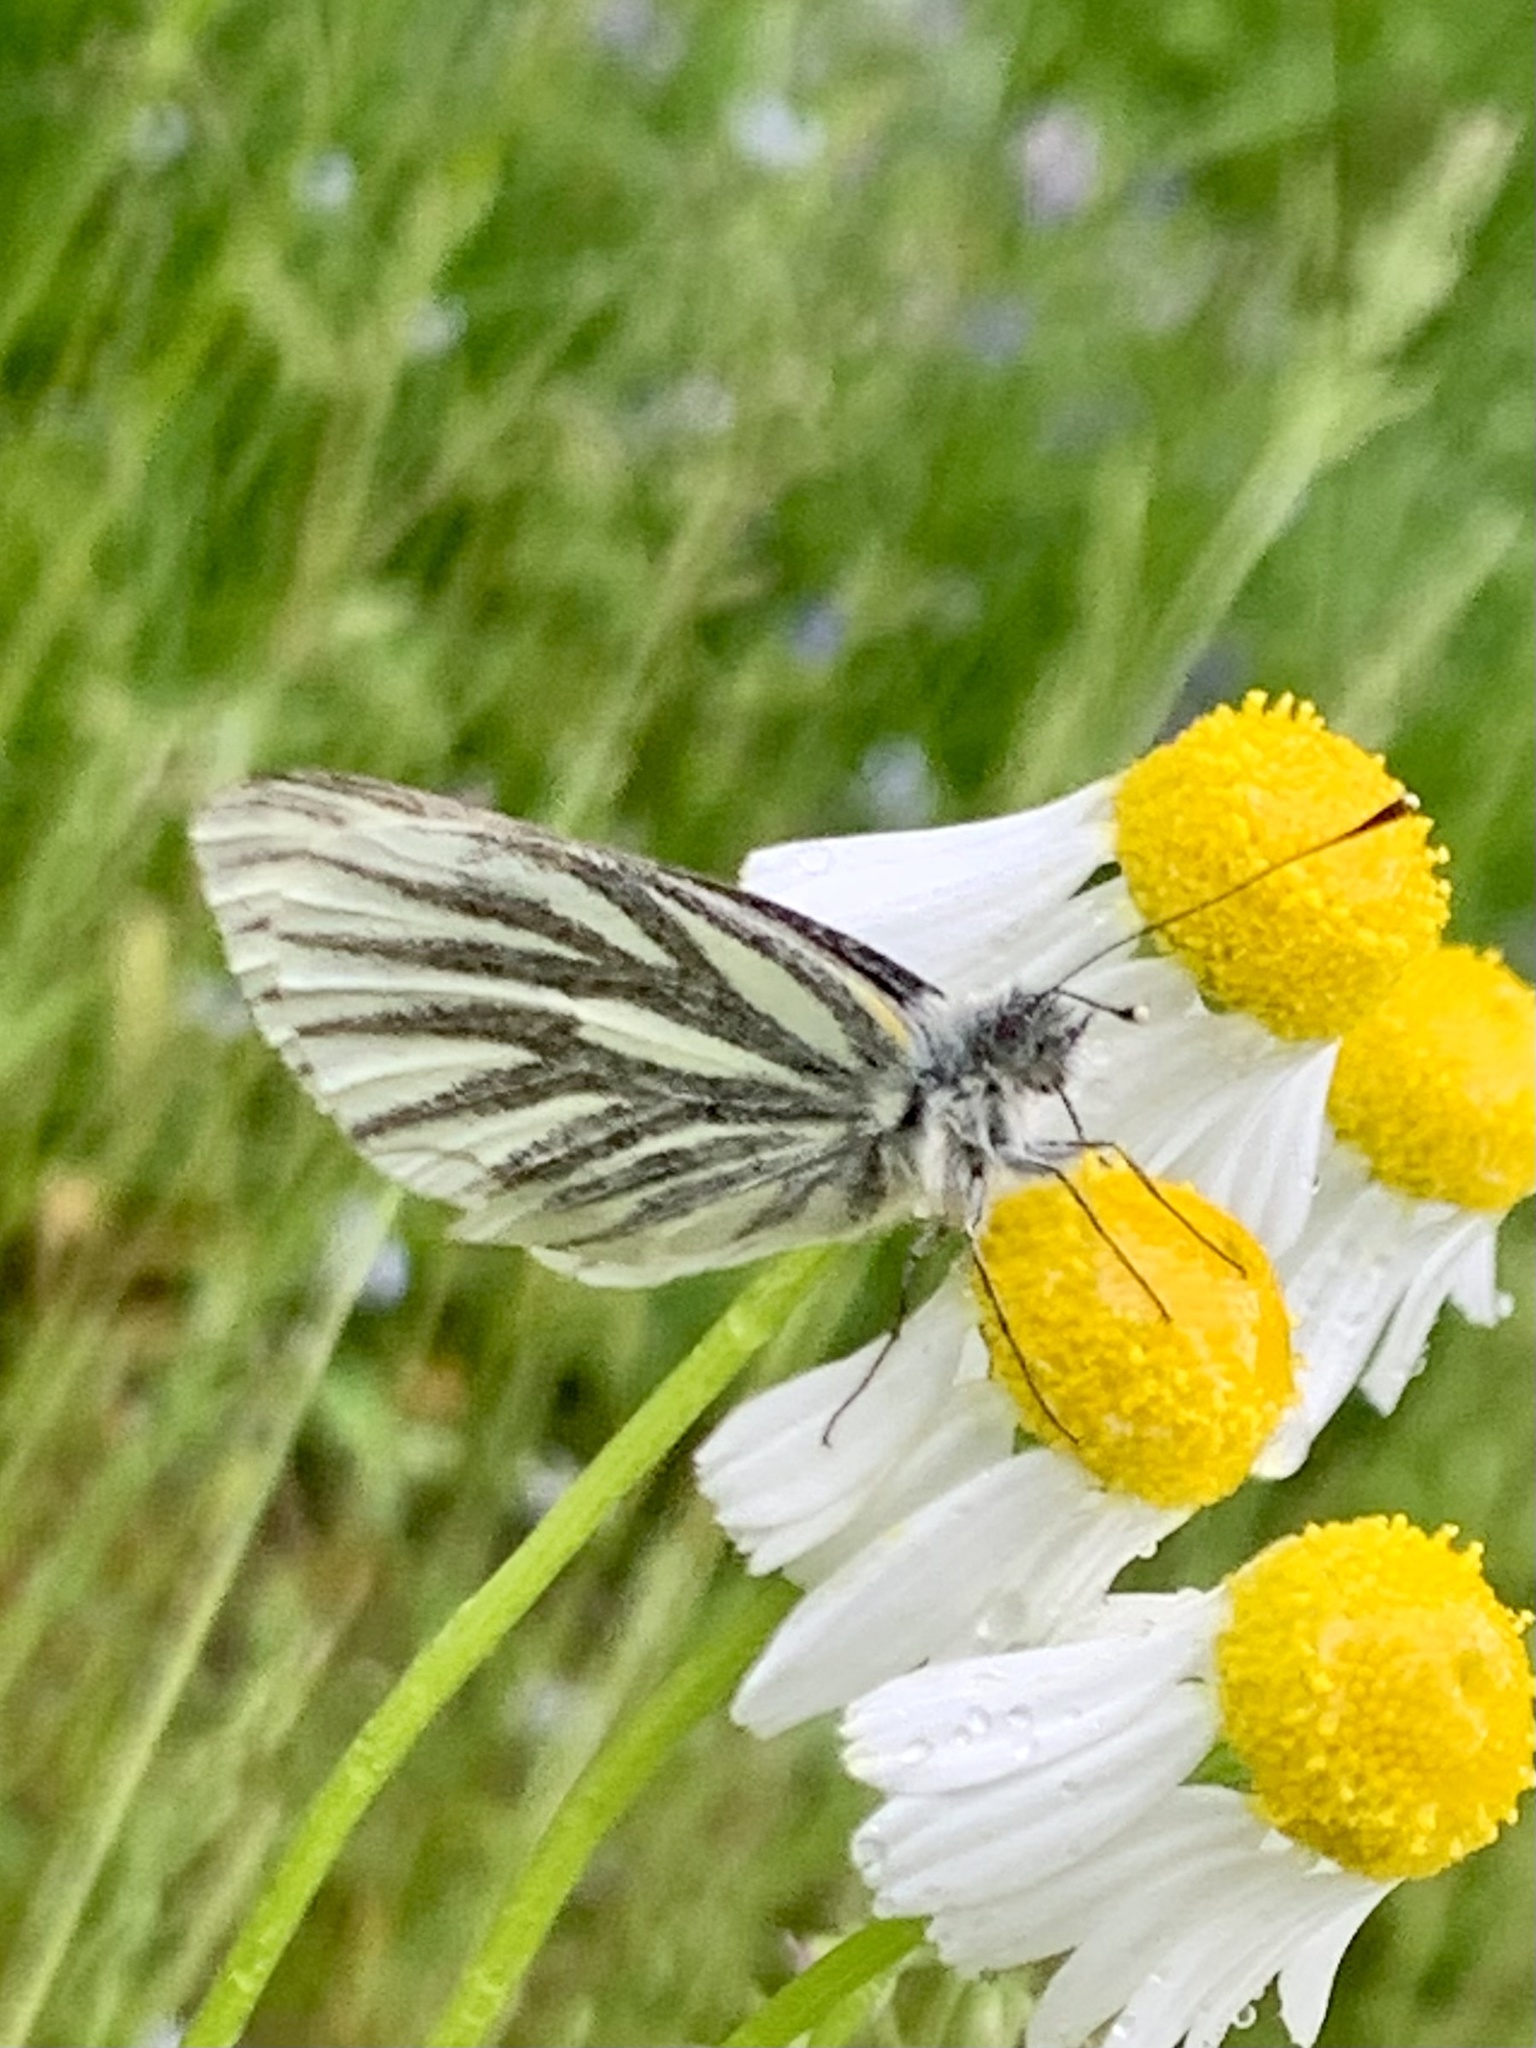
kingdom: Animalia
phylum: Arthropoda
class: Insecta
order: Lepidoptera
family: Pieridae
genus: Pieris
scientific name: Pieris napi
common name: Green-veined white
